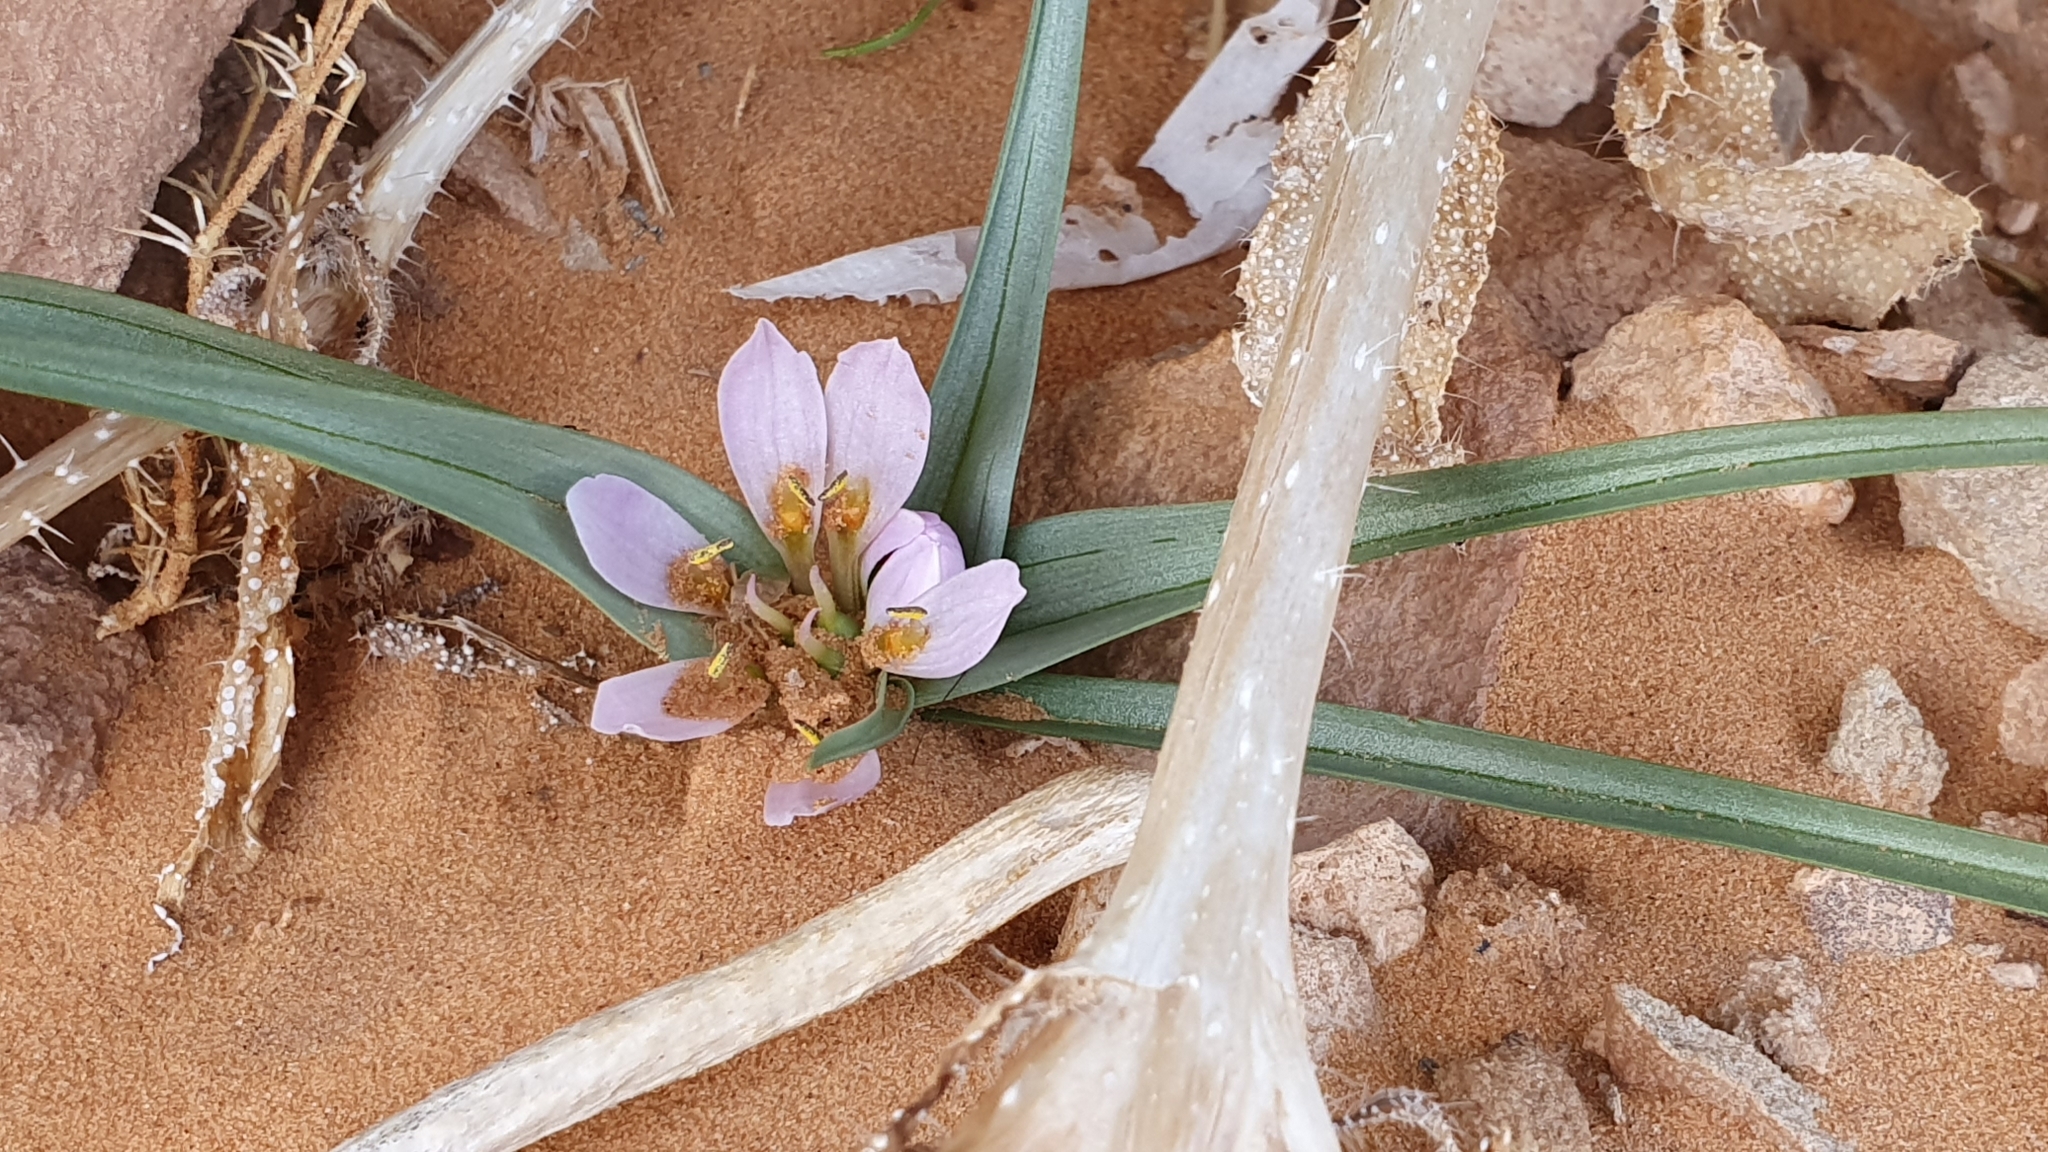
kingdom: Plantae
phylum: Tracheophyta
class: Liliopsida
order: Liliales
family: Colchicaceae
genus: Colchicum
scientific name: Colchicum gramineum
